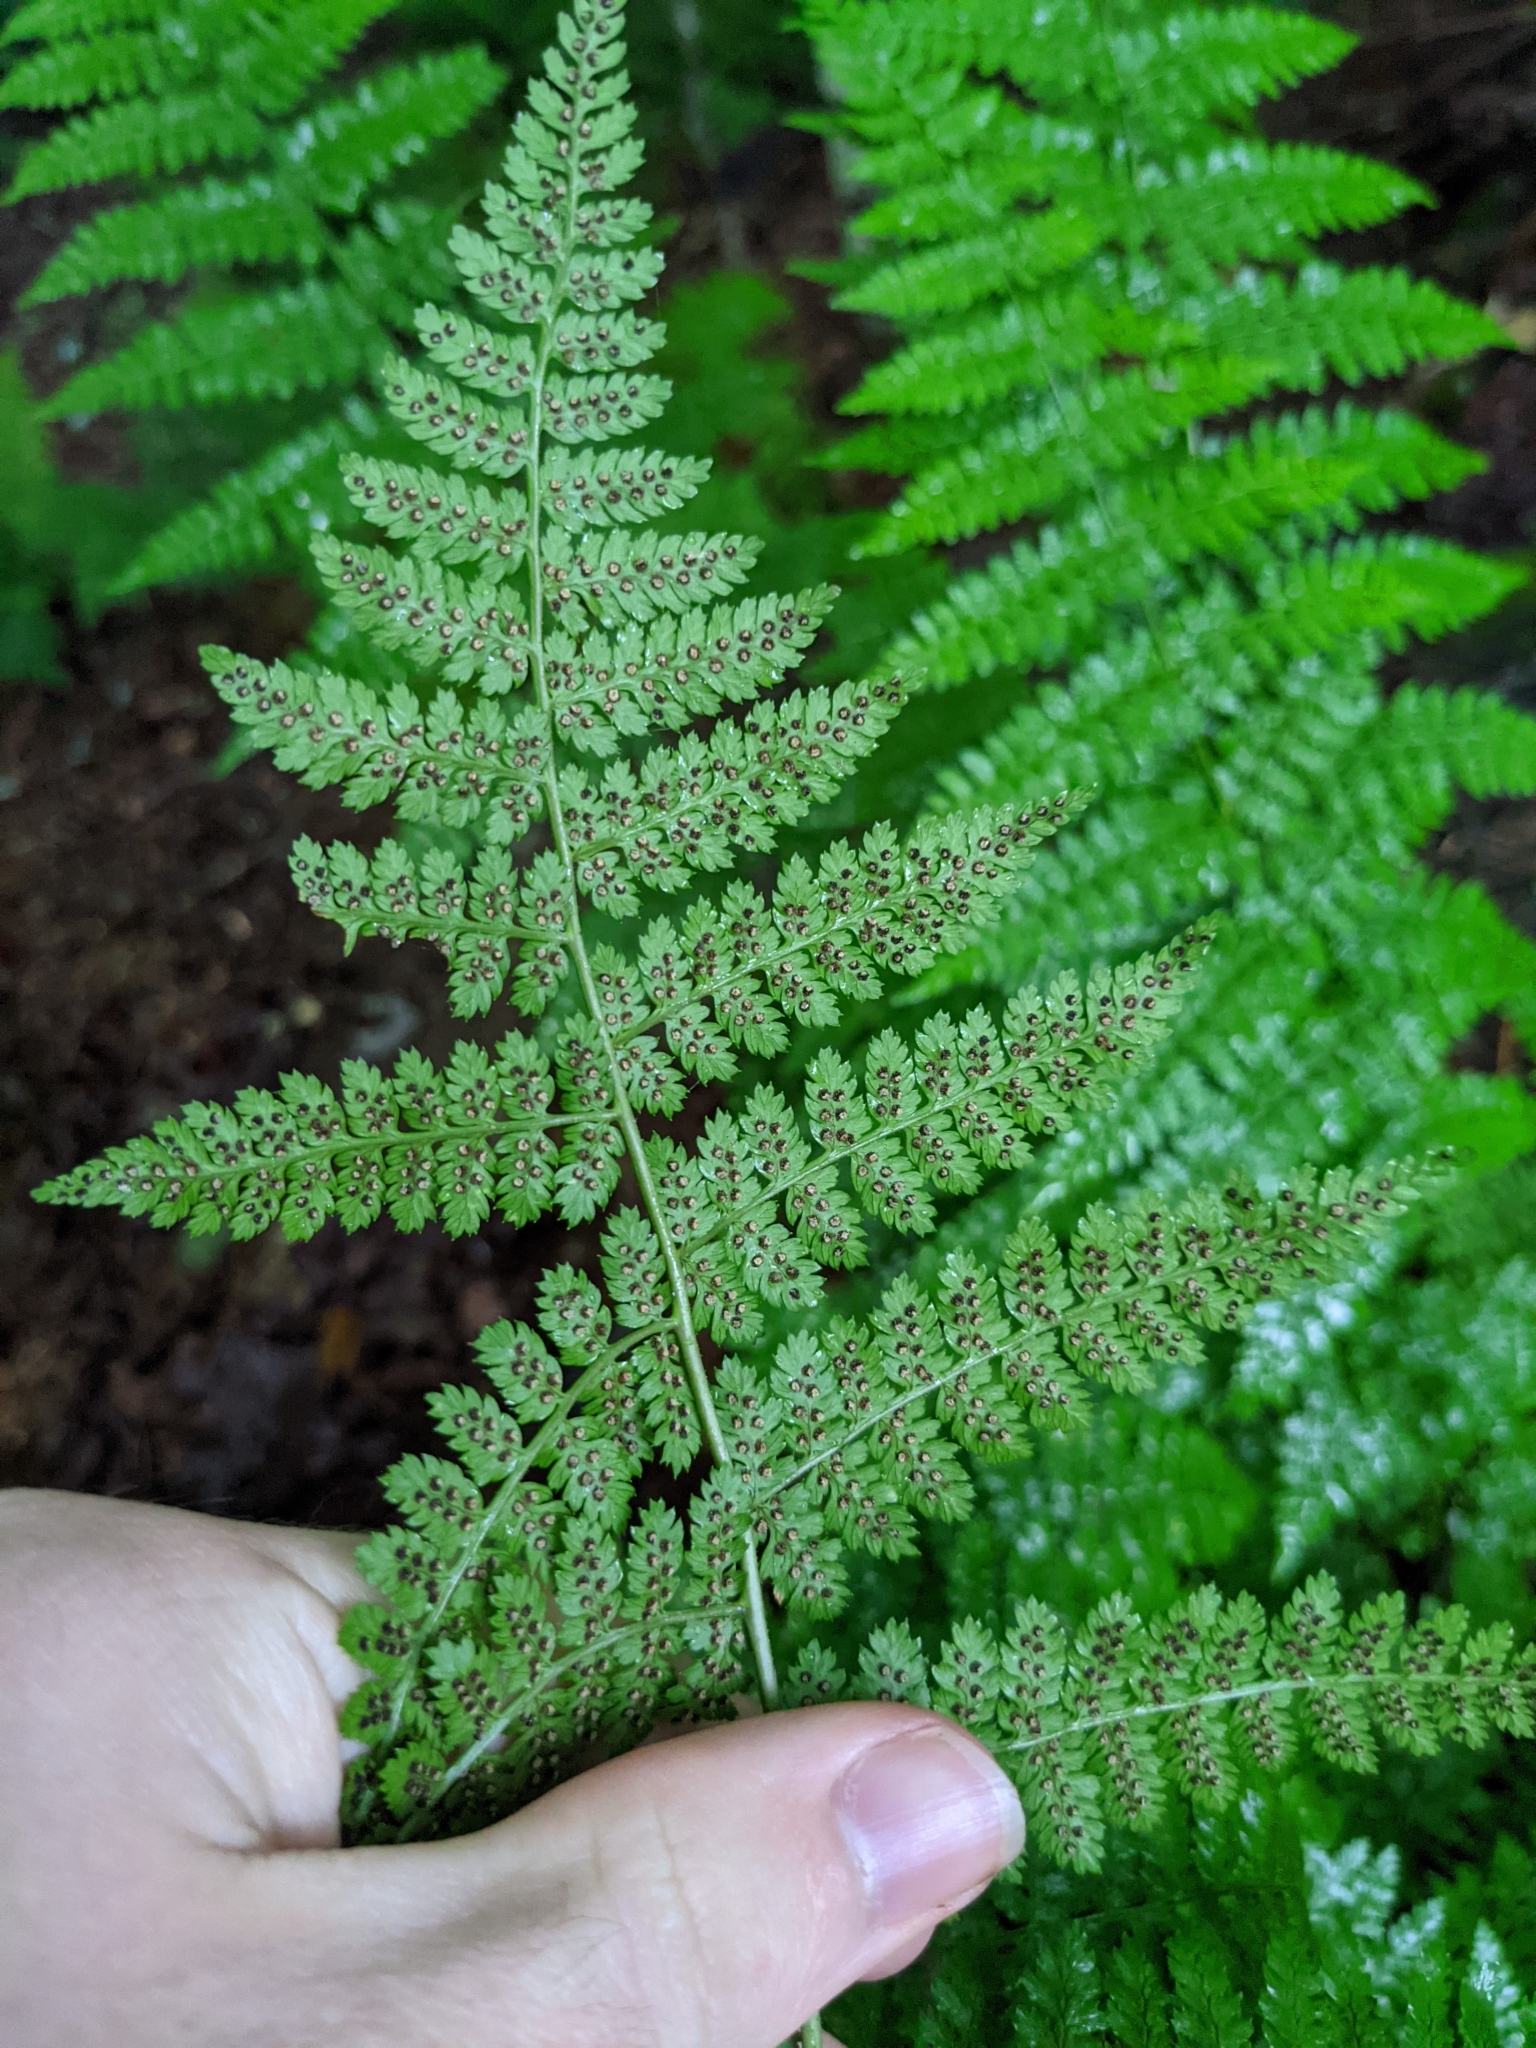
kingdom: Plantae
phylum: Tracheophyta
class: Polypodiopsida
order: Polypodiales
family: Dryopteridaceae
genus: Dryopteris
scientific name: Dryopteris intermedia
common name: Evergreen wood fern
